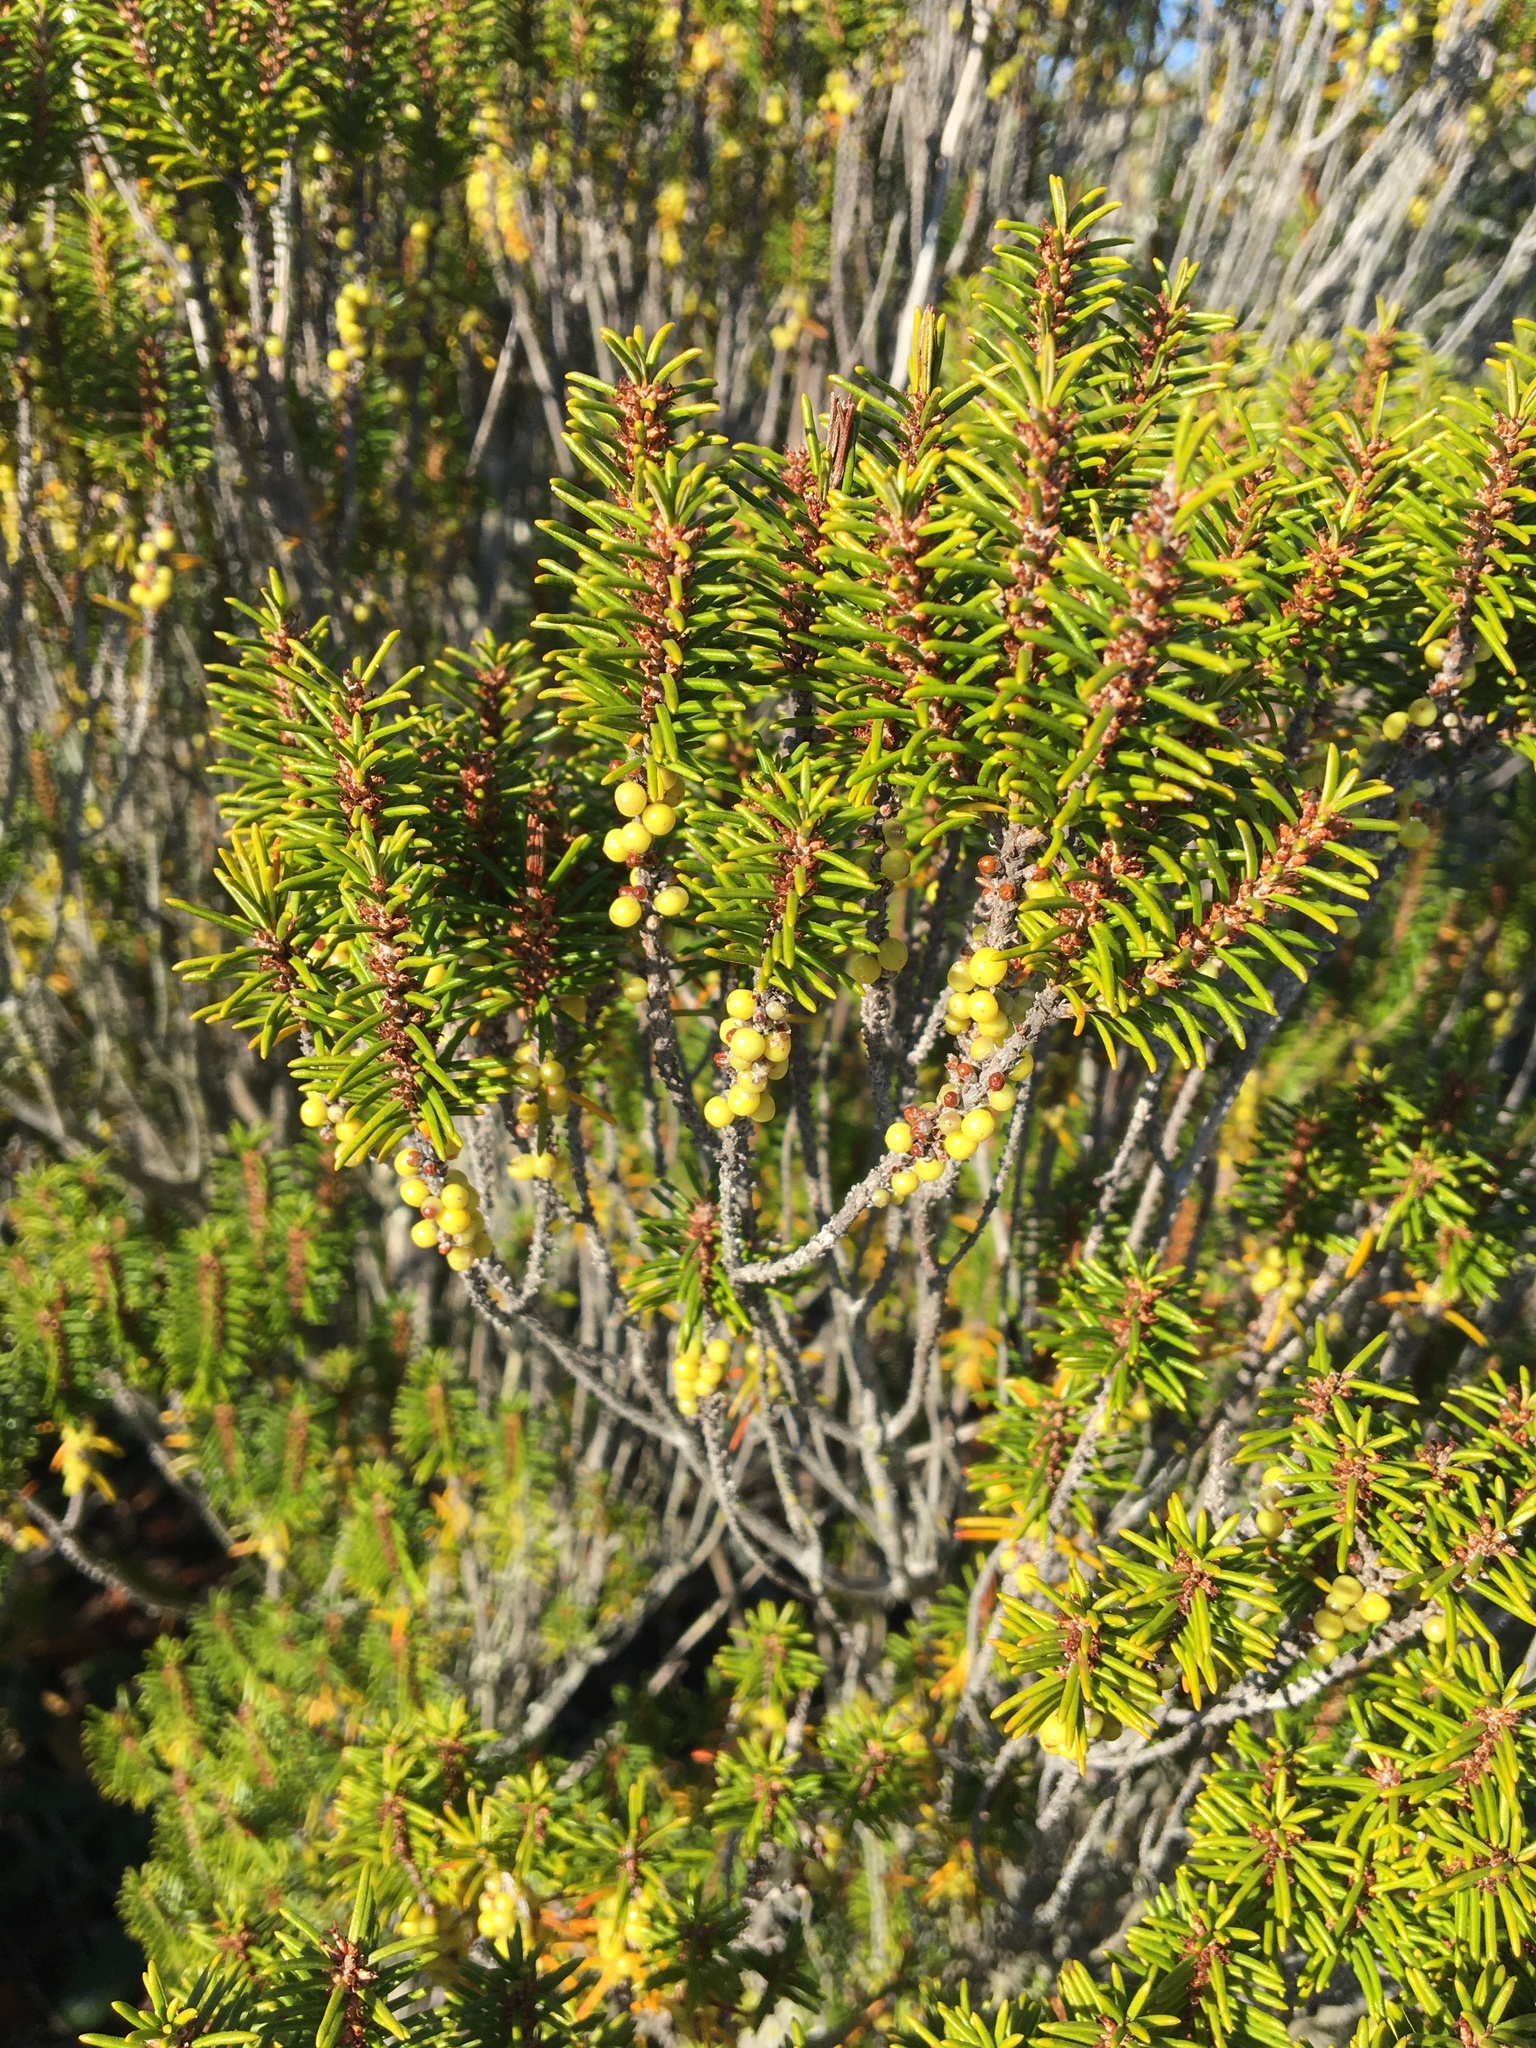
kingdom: Plantae
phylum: Tracheophyta
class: Magnoliopsida
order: Ericales
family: Ericaceae
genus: Ceratiola
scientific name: Ceratiola ericoides
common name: Sandhill-rosemary
